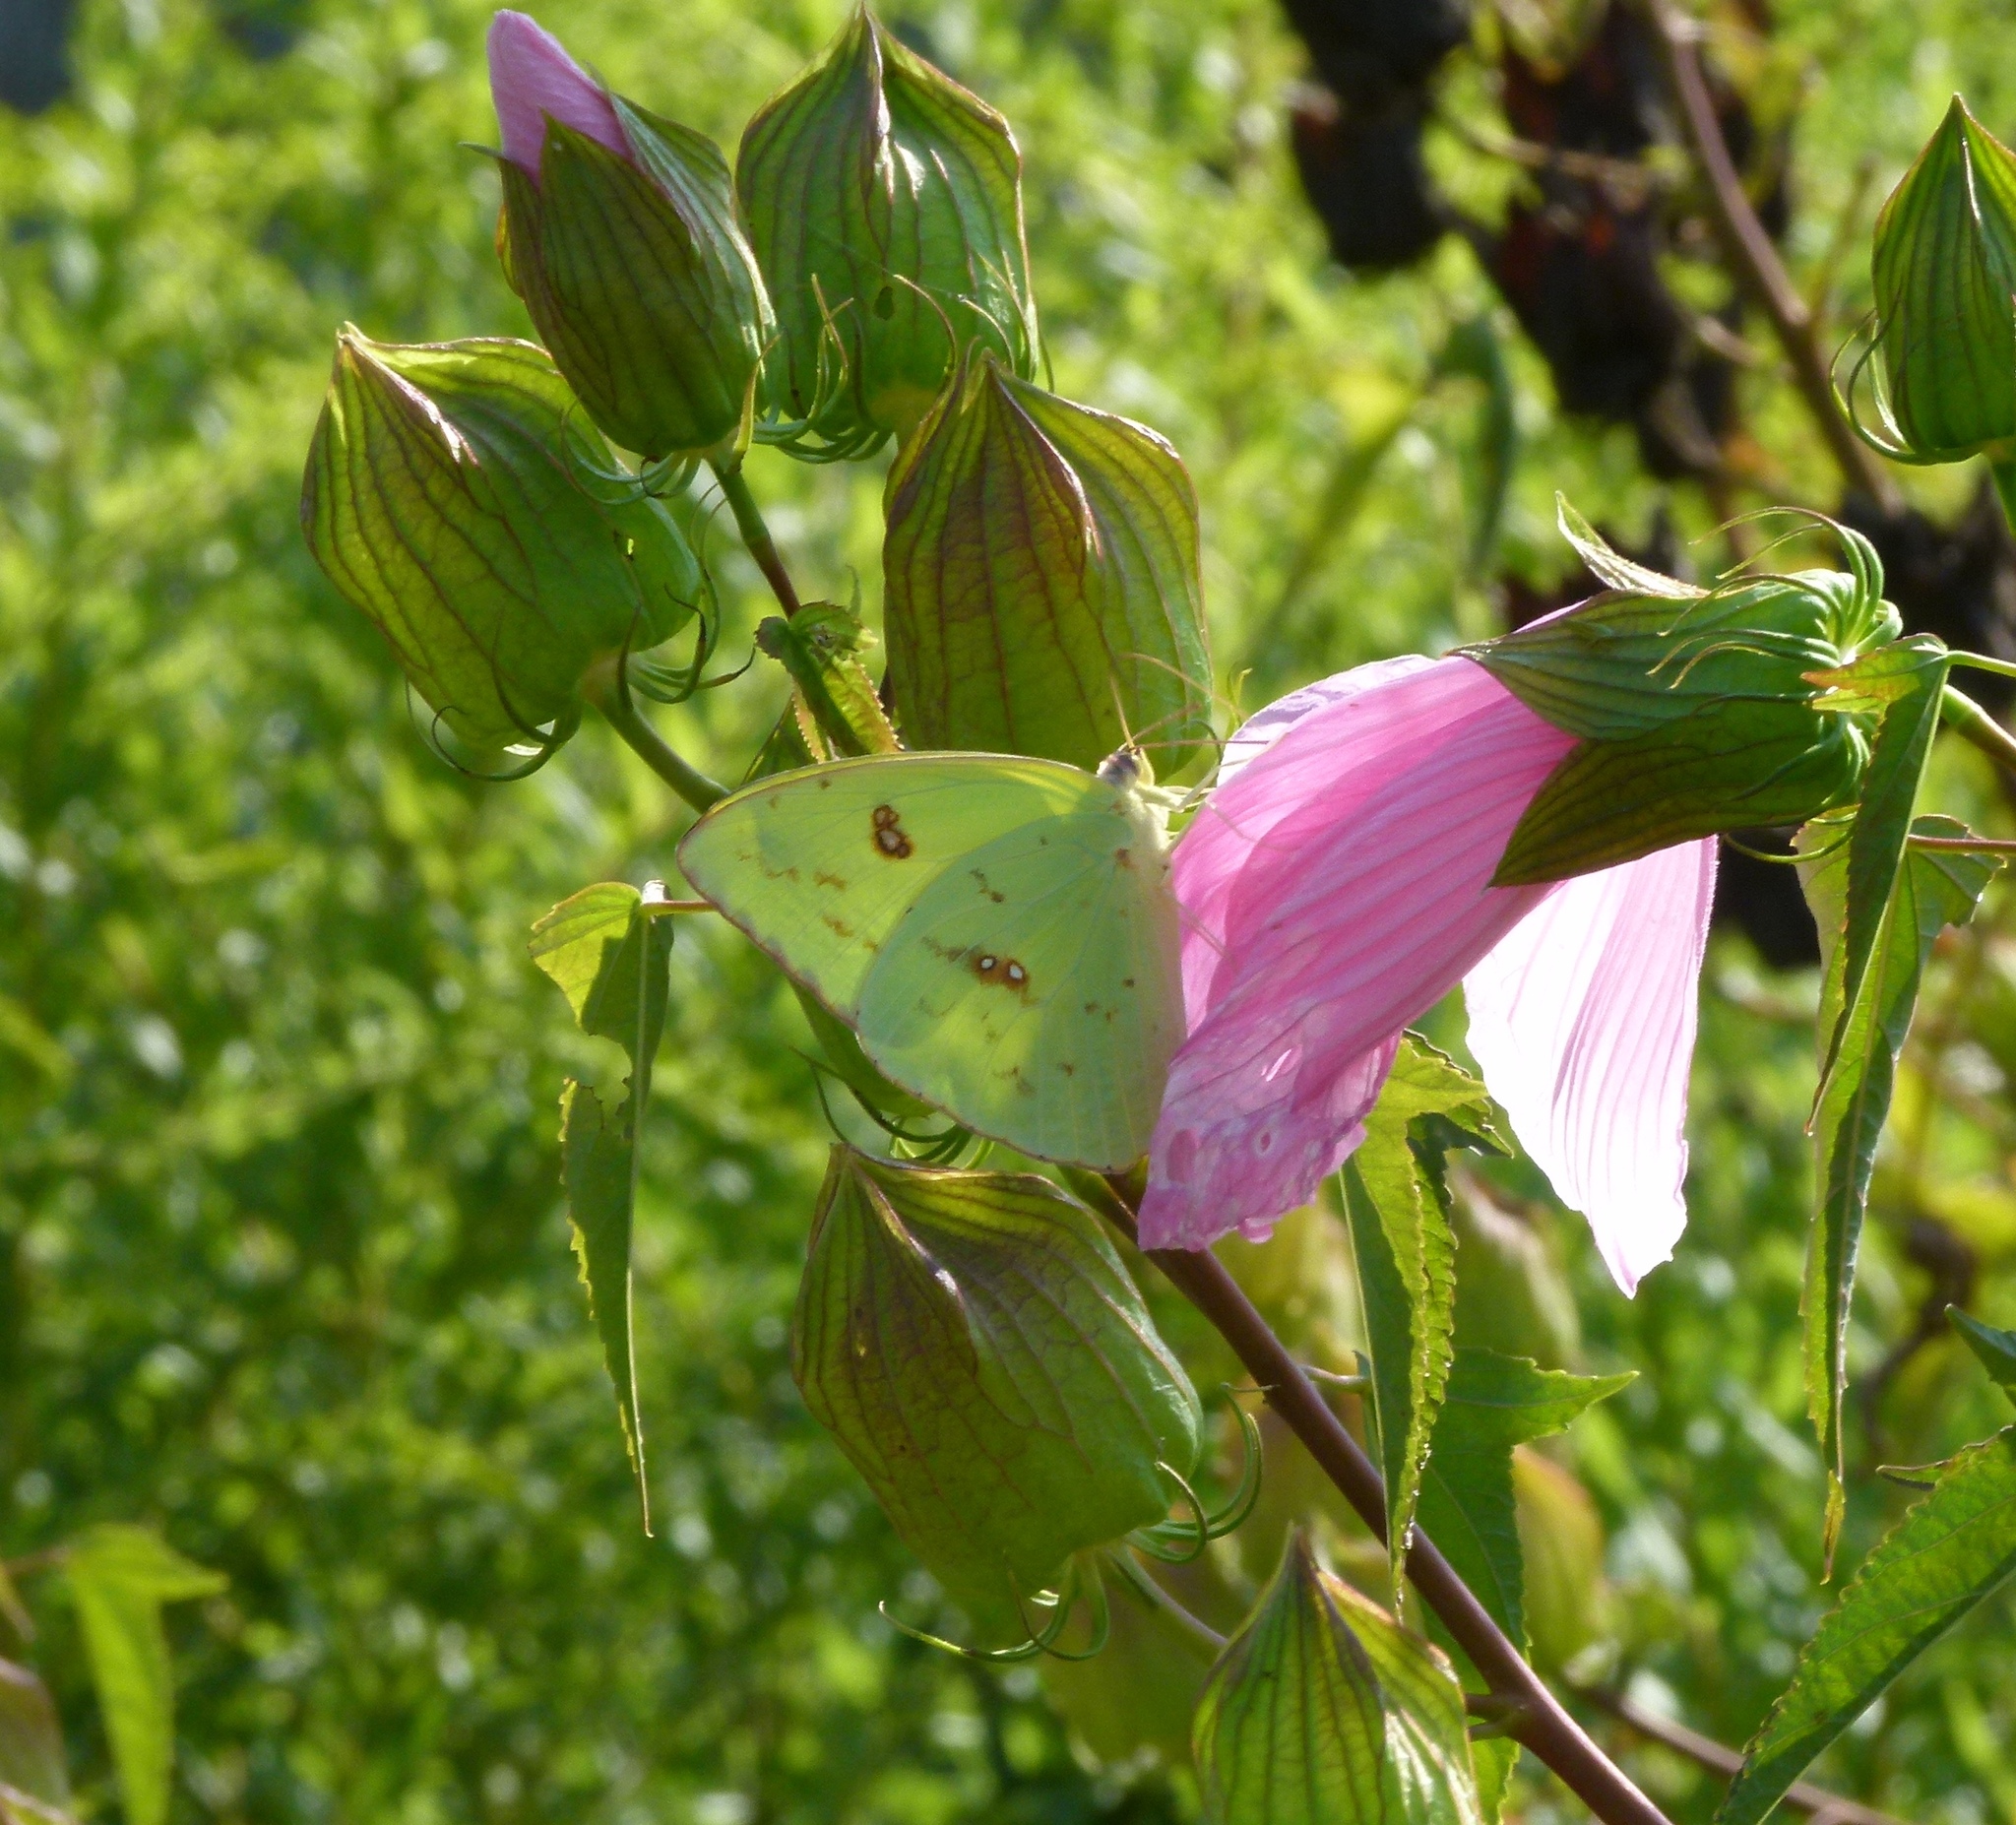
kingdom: Animalia
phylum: Arthropoda
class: Insecta
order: Lepidoptera
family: Pieridae
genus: Phoebis
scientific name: Phoebis sennae
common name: Cloudless sulphur
